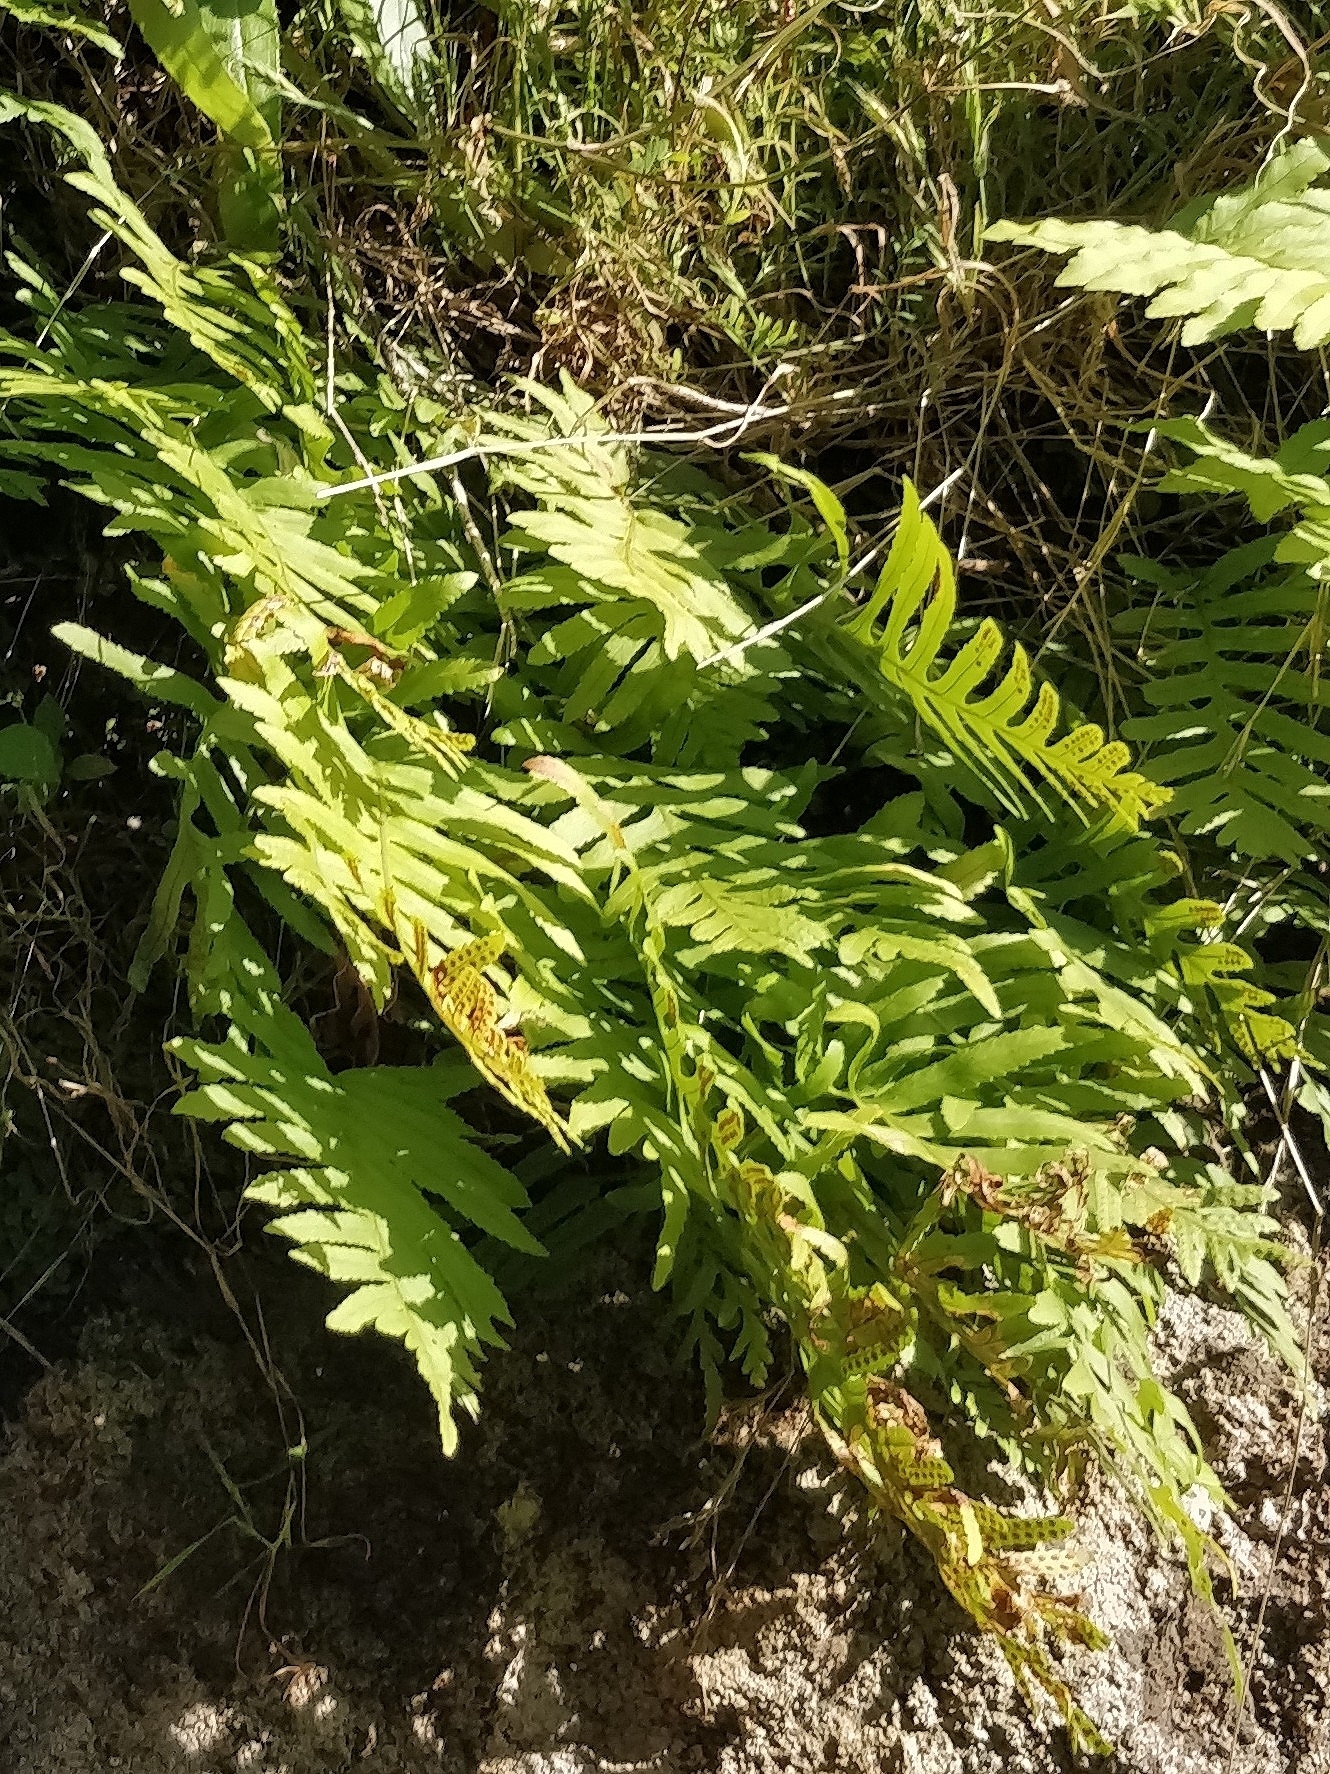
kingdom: Plantae
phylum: Tracheophyta
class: Polypodiopsida
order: Polypodiales
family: Polypodiaceae
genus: Polypodium
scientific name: Polypodium macaronesicum
